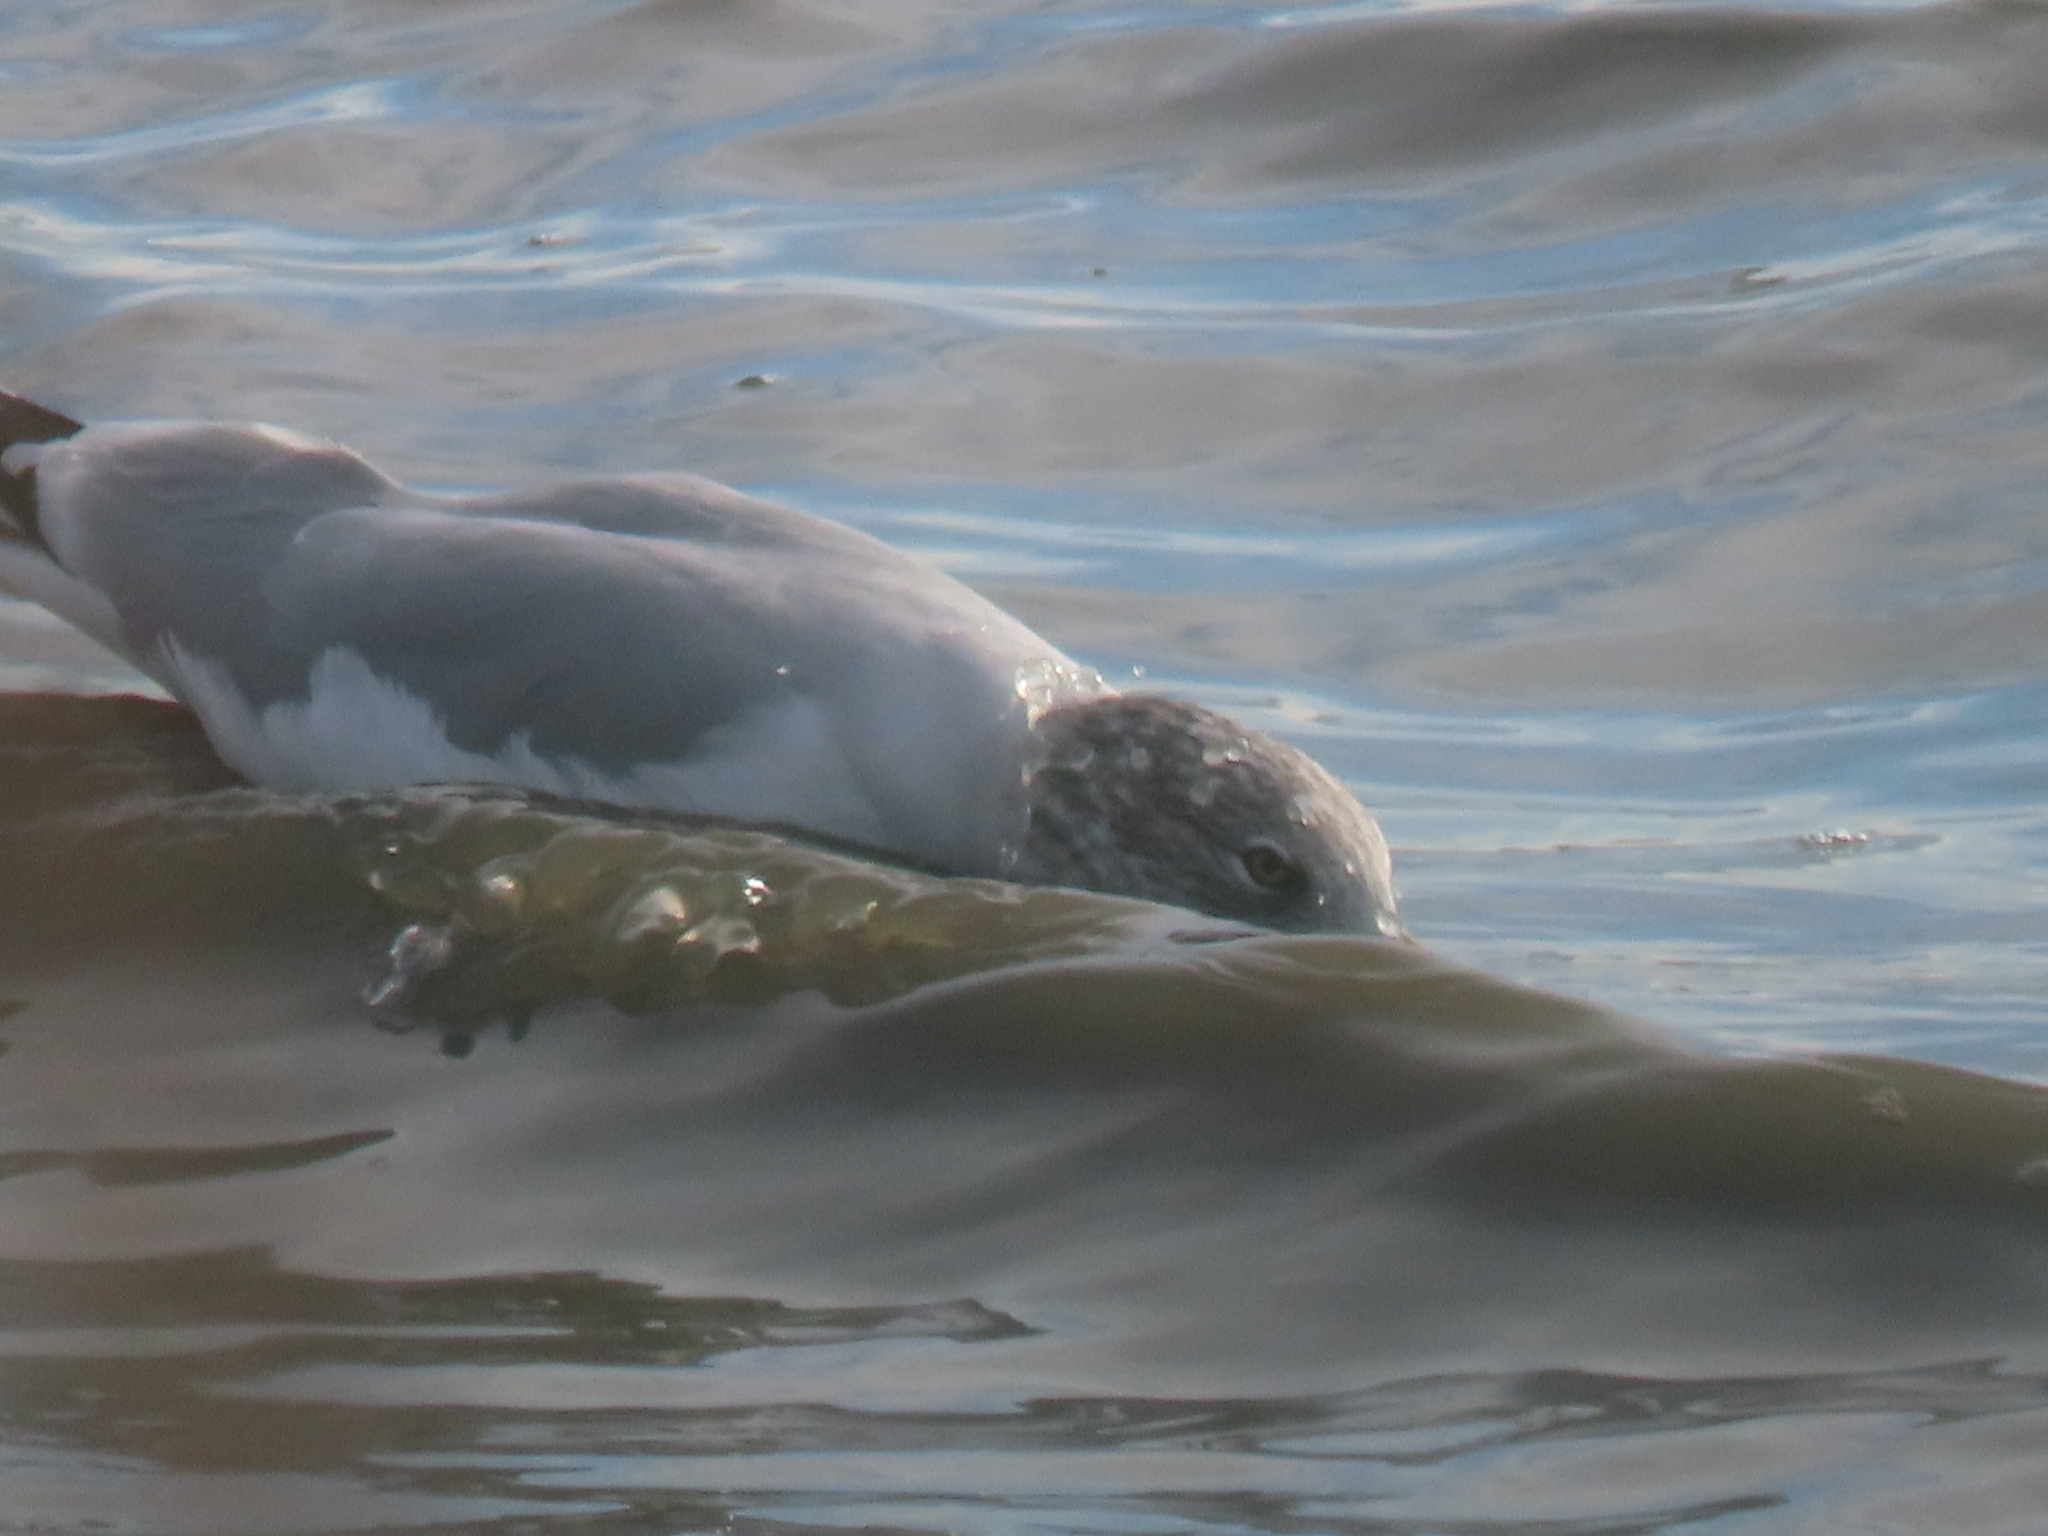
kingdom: Animalia
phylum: Chordata
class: Aves
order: Charadriiformes
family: Laridae
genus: Larus
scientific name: Larus delawarensis
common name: Ring-billed gull
